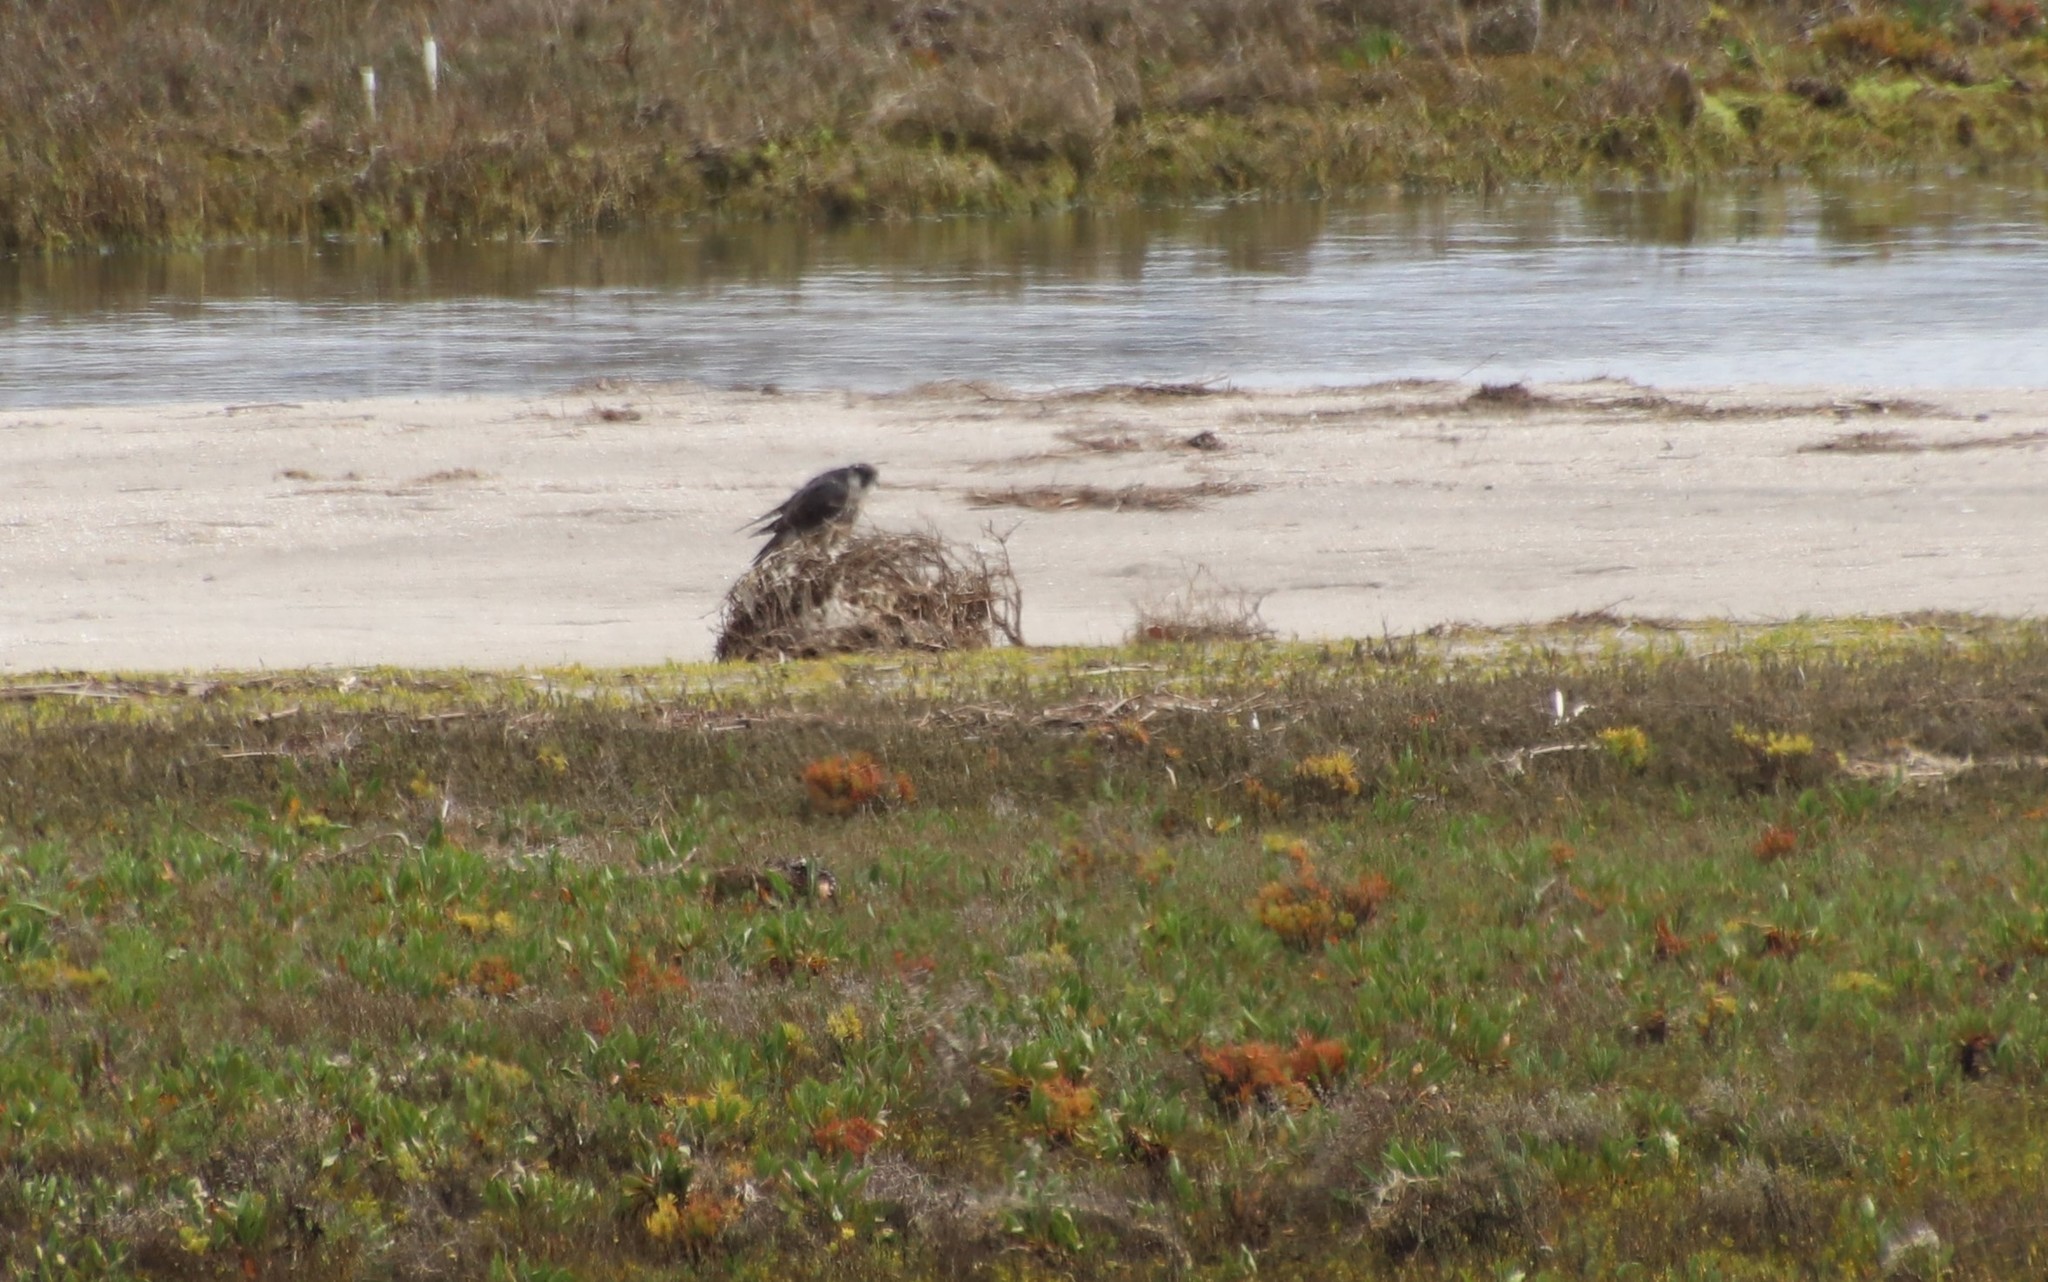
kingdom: Animalia
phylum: Chordata
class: Aves
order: Falconiformes
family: Falconidae
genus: Falco
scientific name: Falco peregrinus
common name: Peregrine falcon
